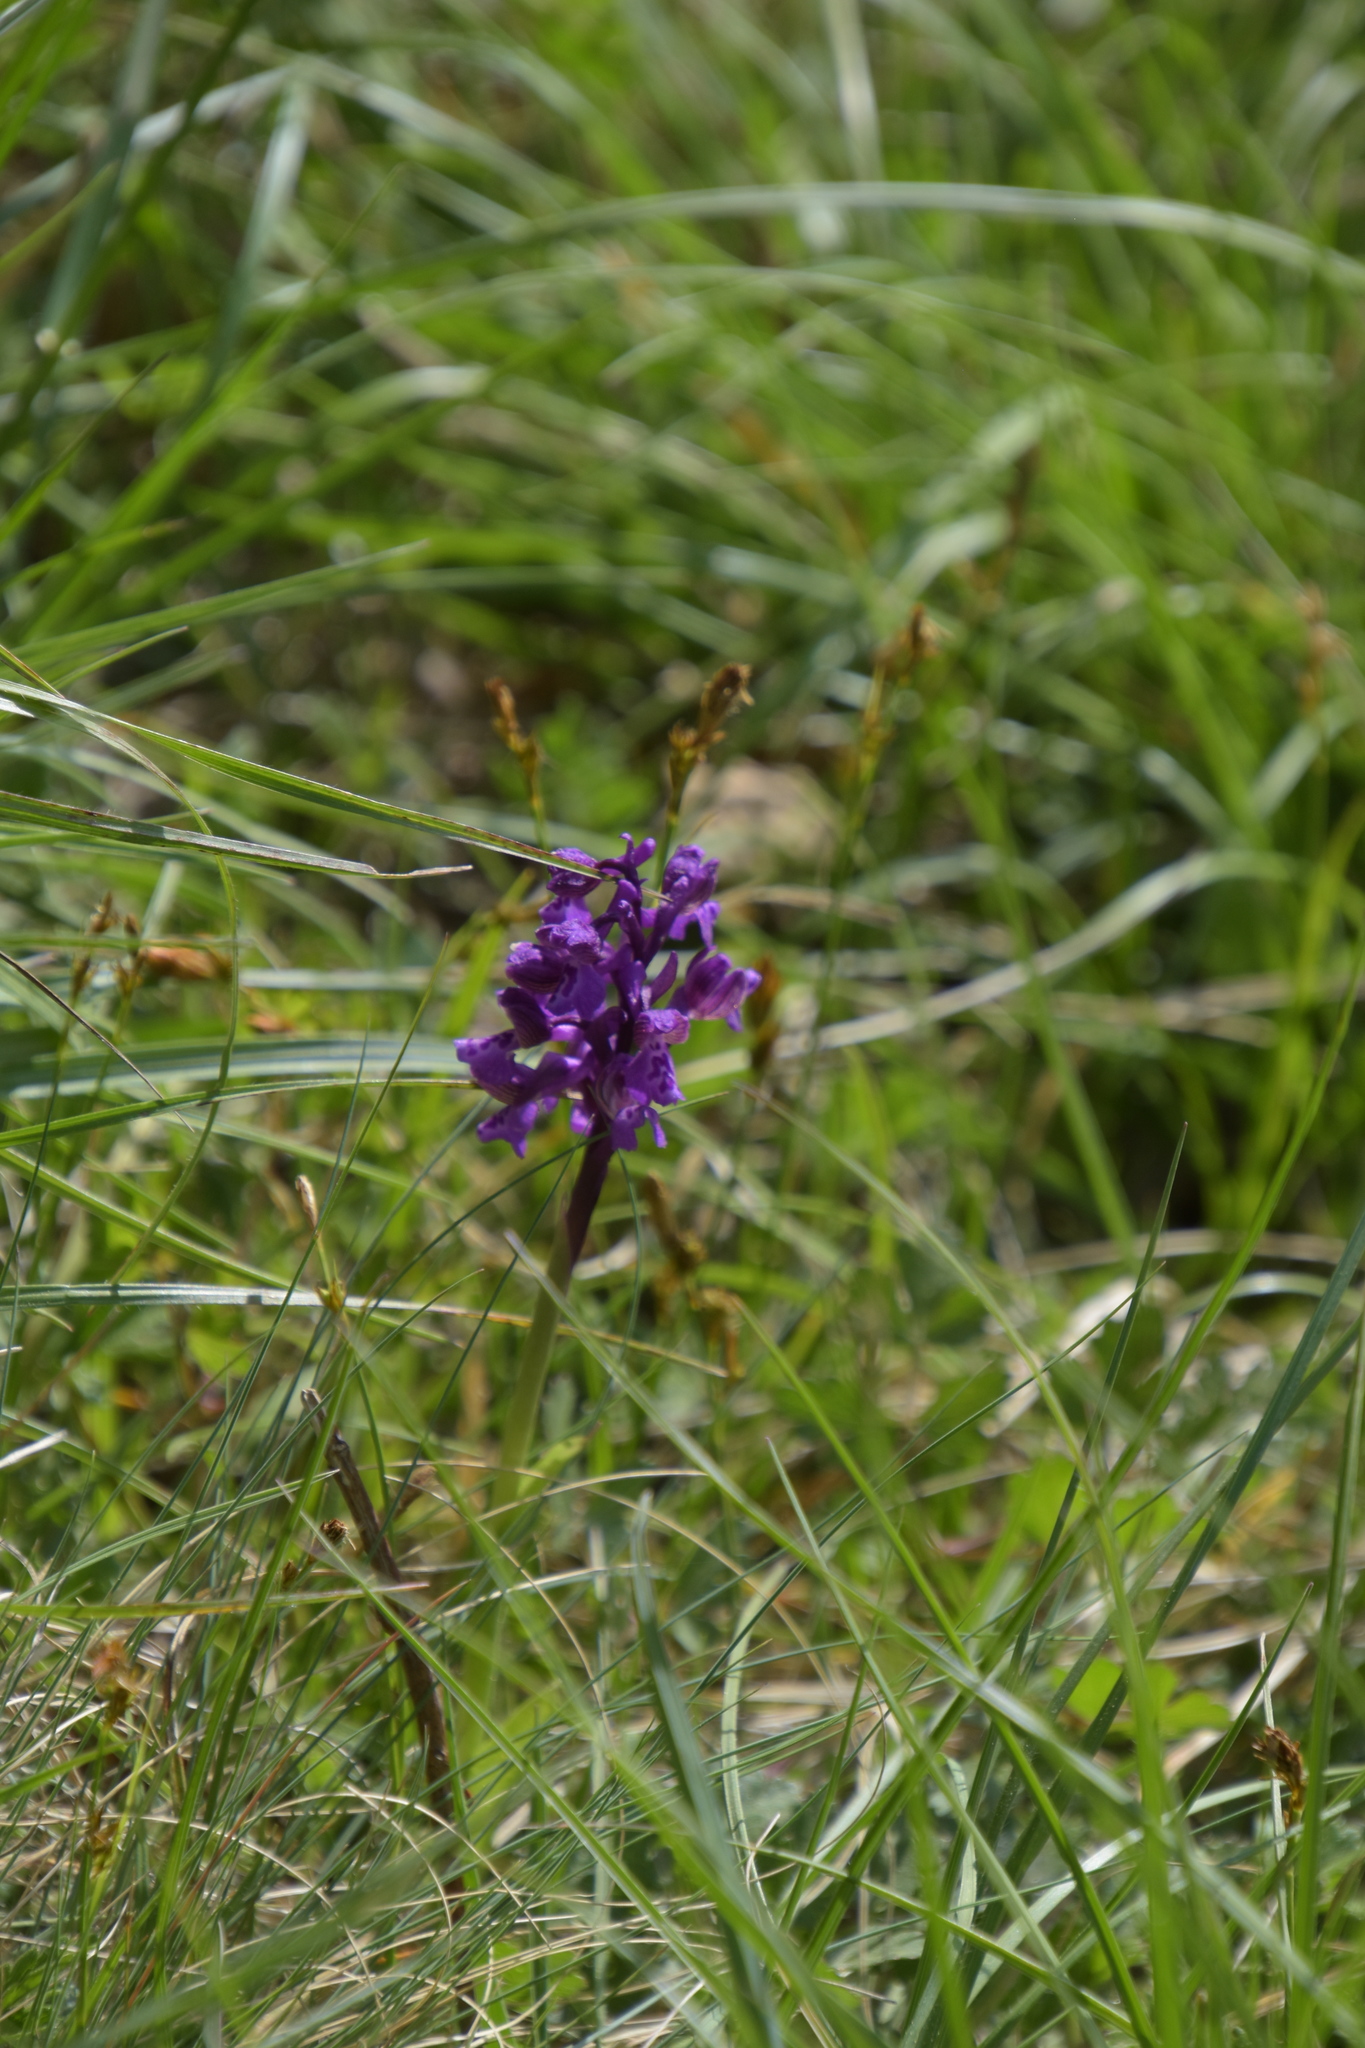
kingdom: Plantae
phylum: Tracheophyta
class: Liliopsida
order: Asparagales
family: Orchidaceae
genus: Anacamptis
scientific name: Anacamptis morio
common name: Green-winged orchid
